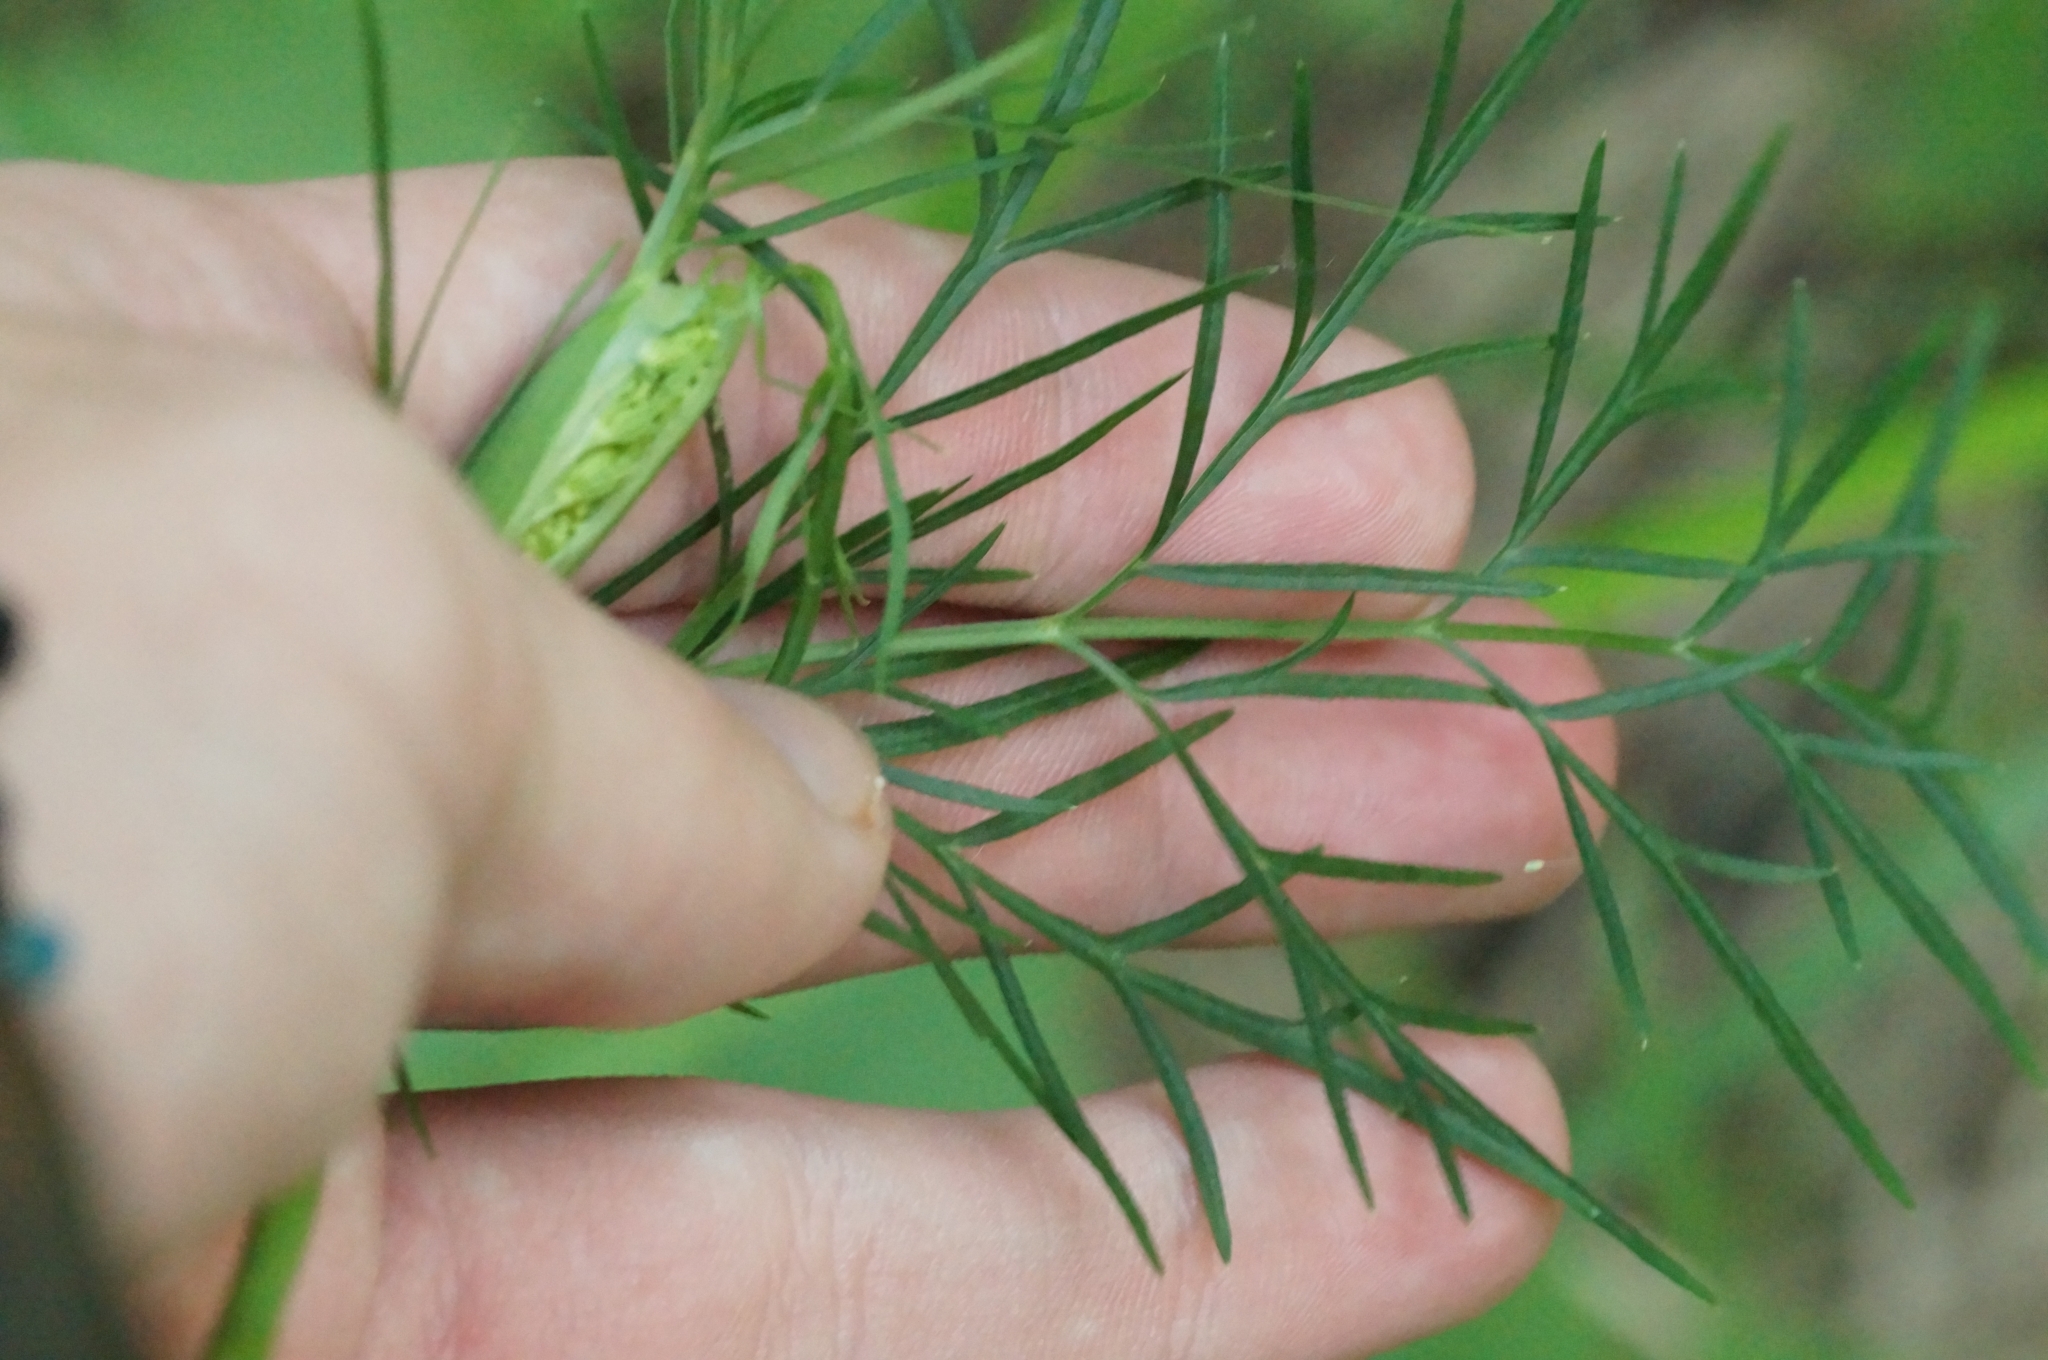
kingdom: Plantae
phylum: Tracheophyta
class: Magnoliopsida
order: Apiales
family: Apiaceae
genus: Seseli
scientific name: Seseli annuum
